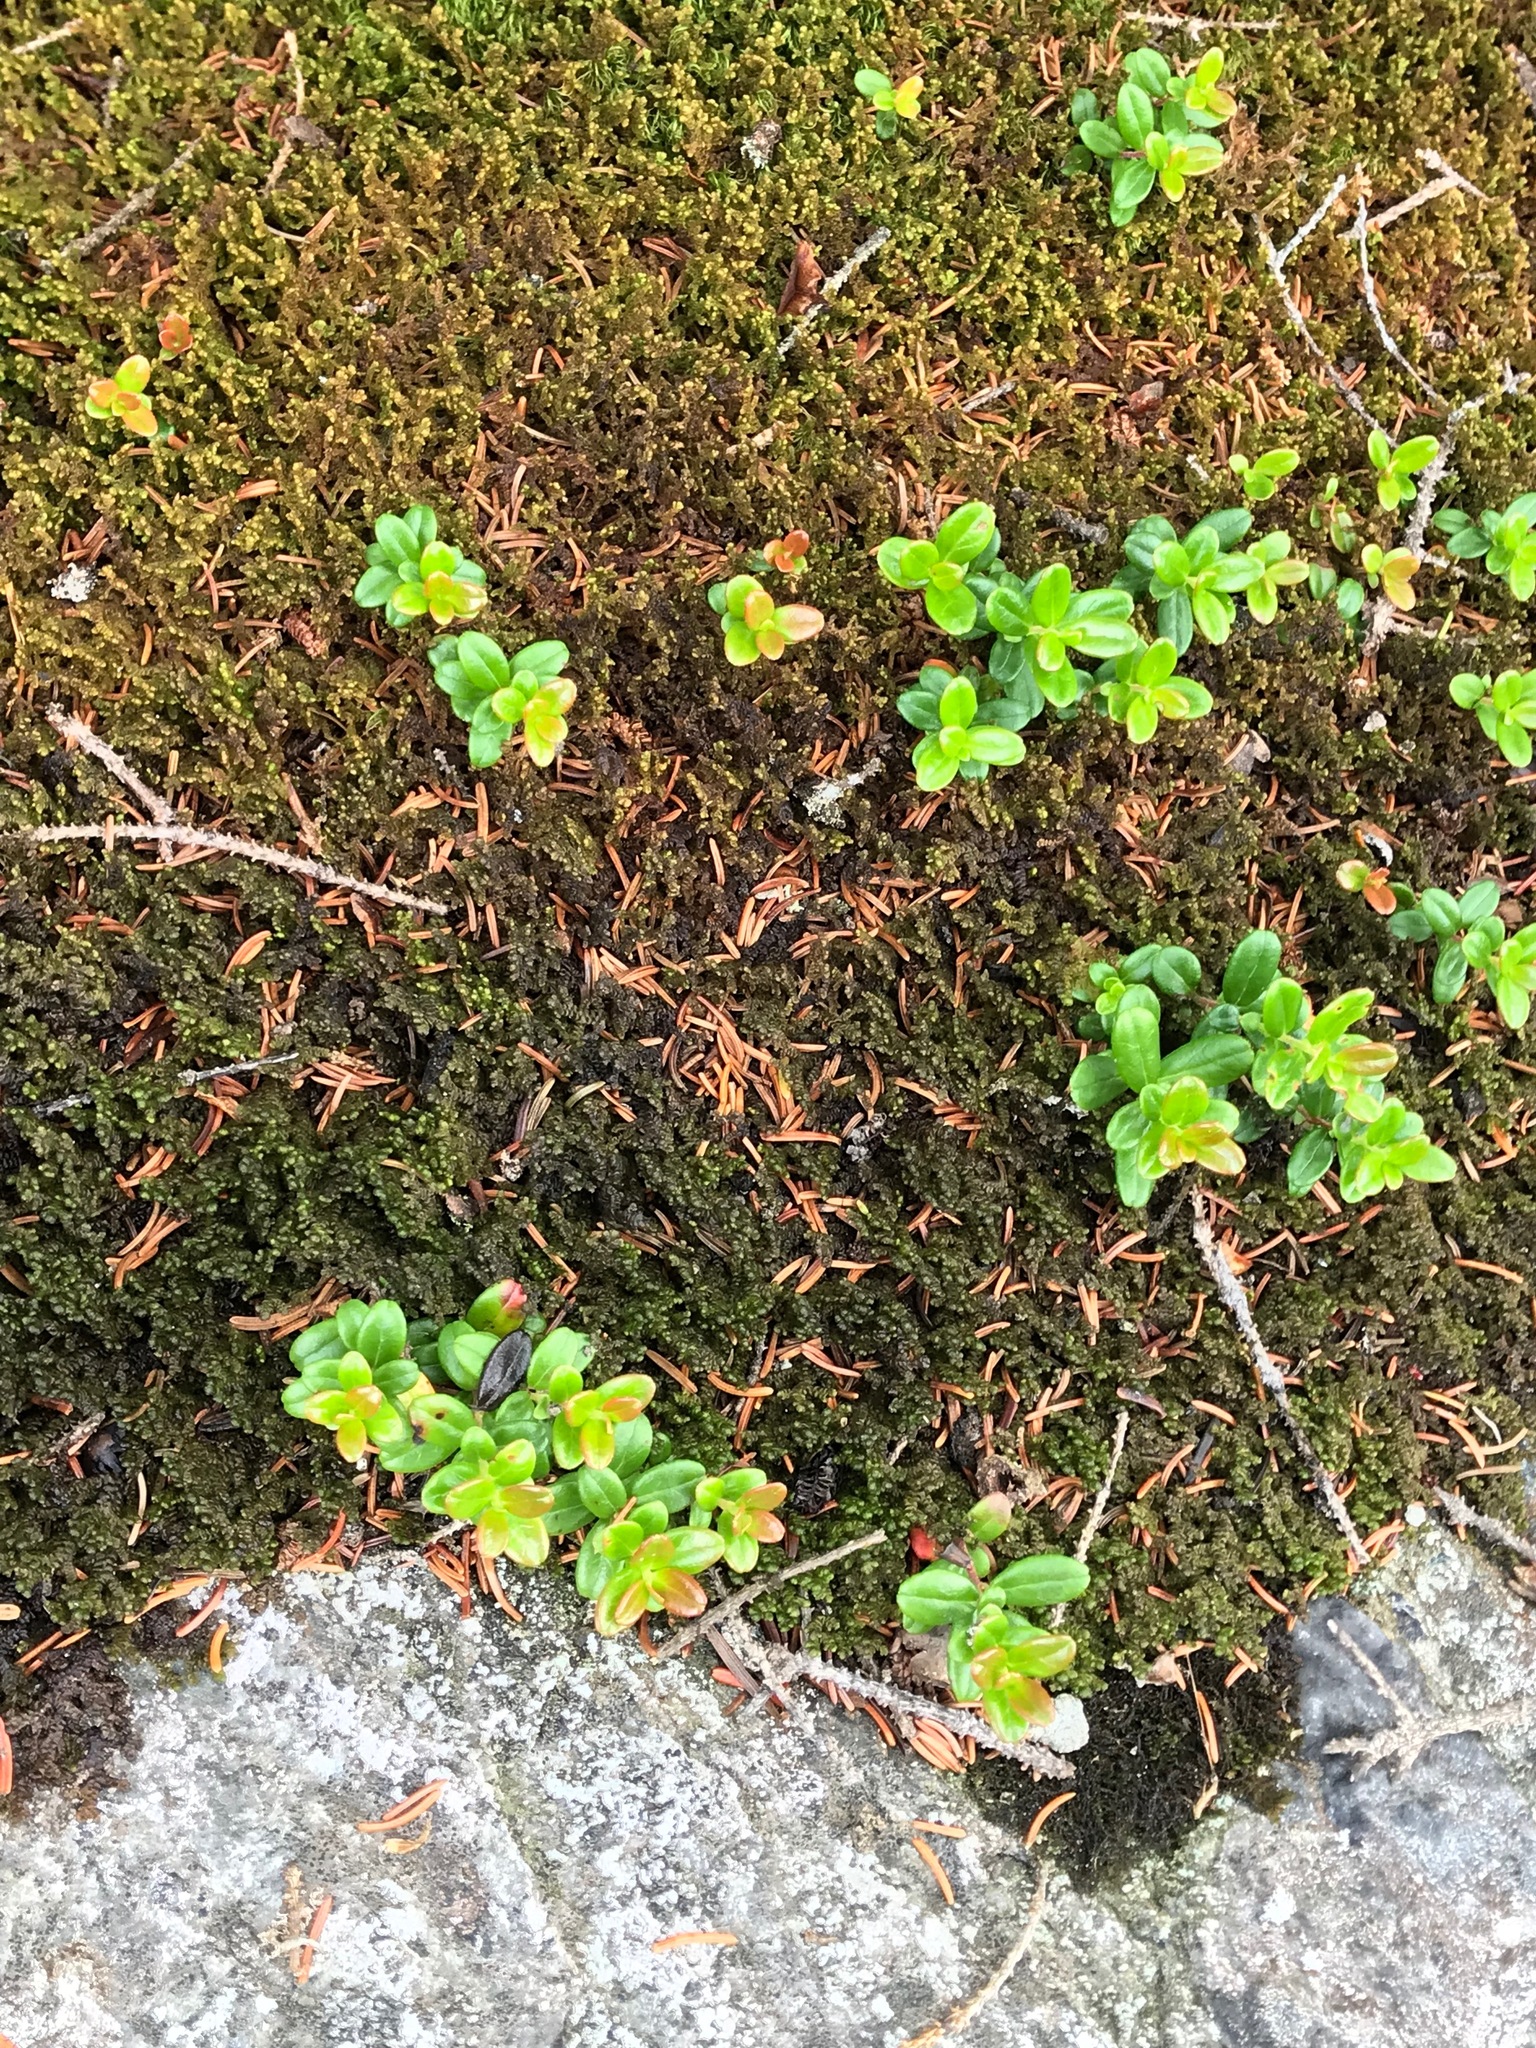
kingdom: Plantae
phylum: Tracheophyta
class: Magnoliopsida
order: Ericales
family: Ericaceae
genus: Vaccinium
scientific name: Vaccinium vitis-idaea
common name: Cowberry
